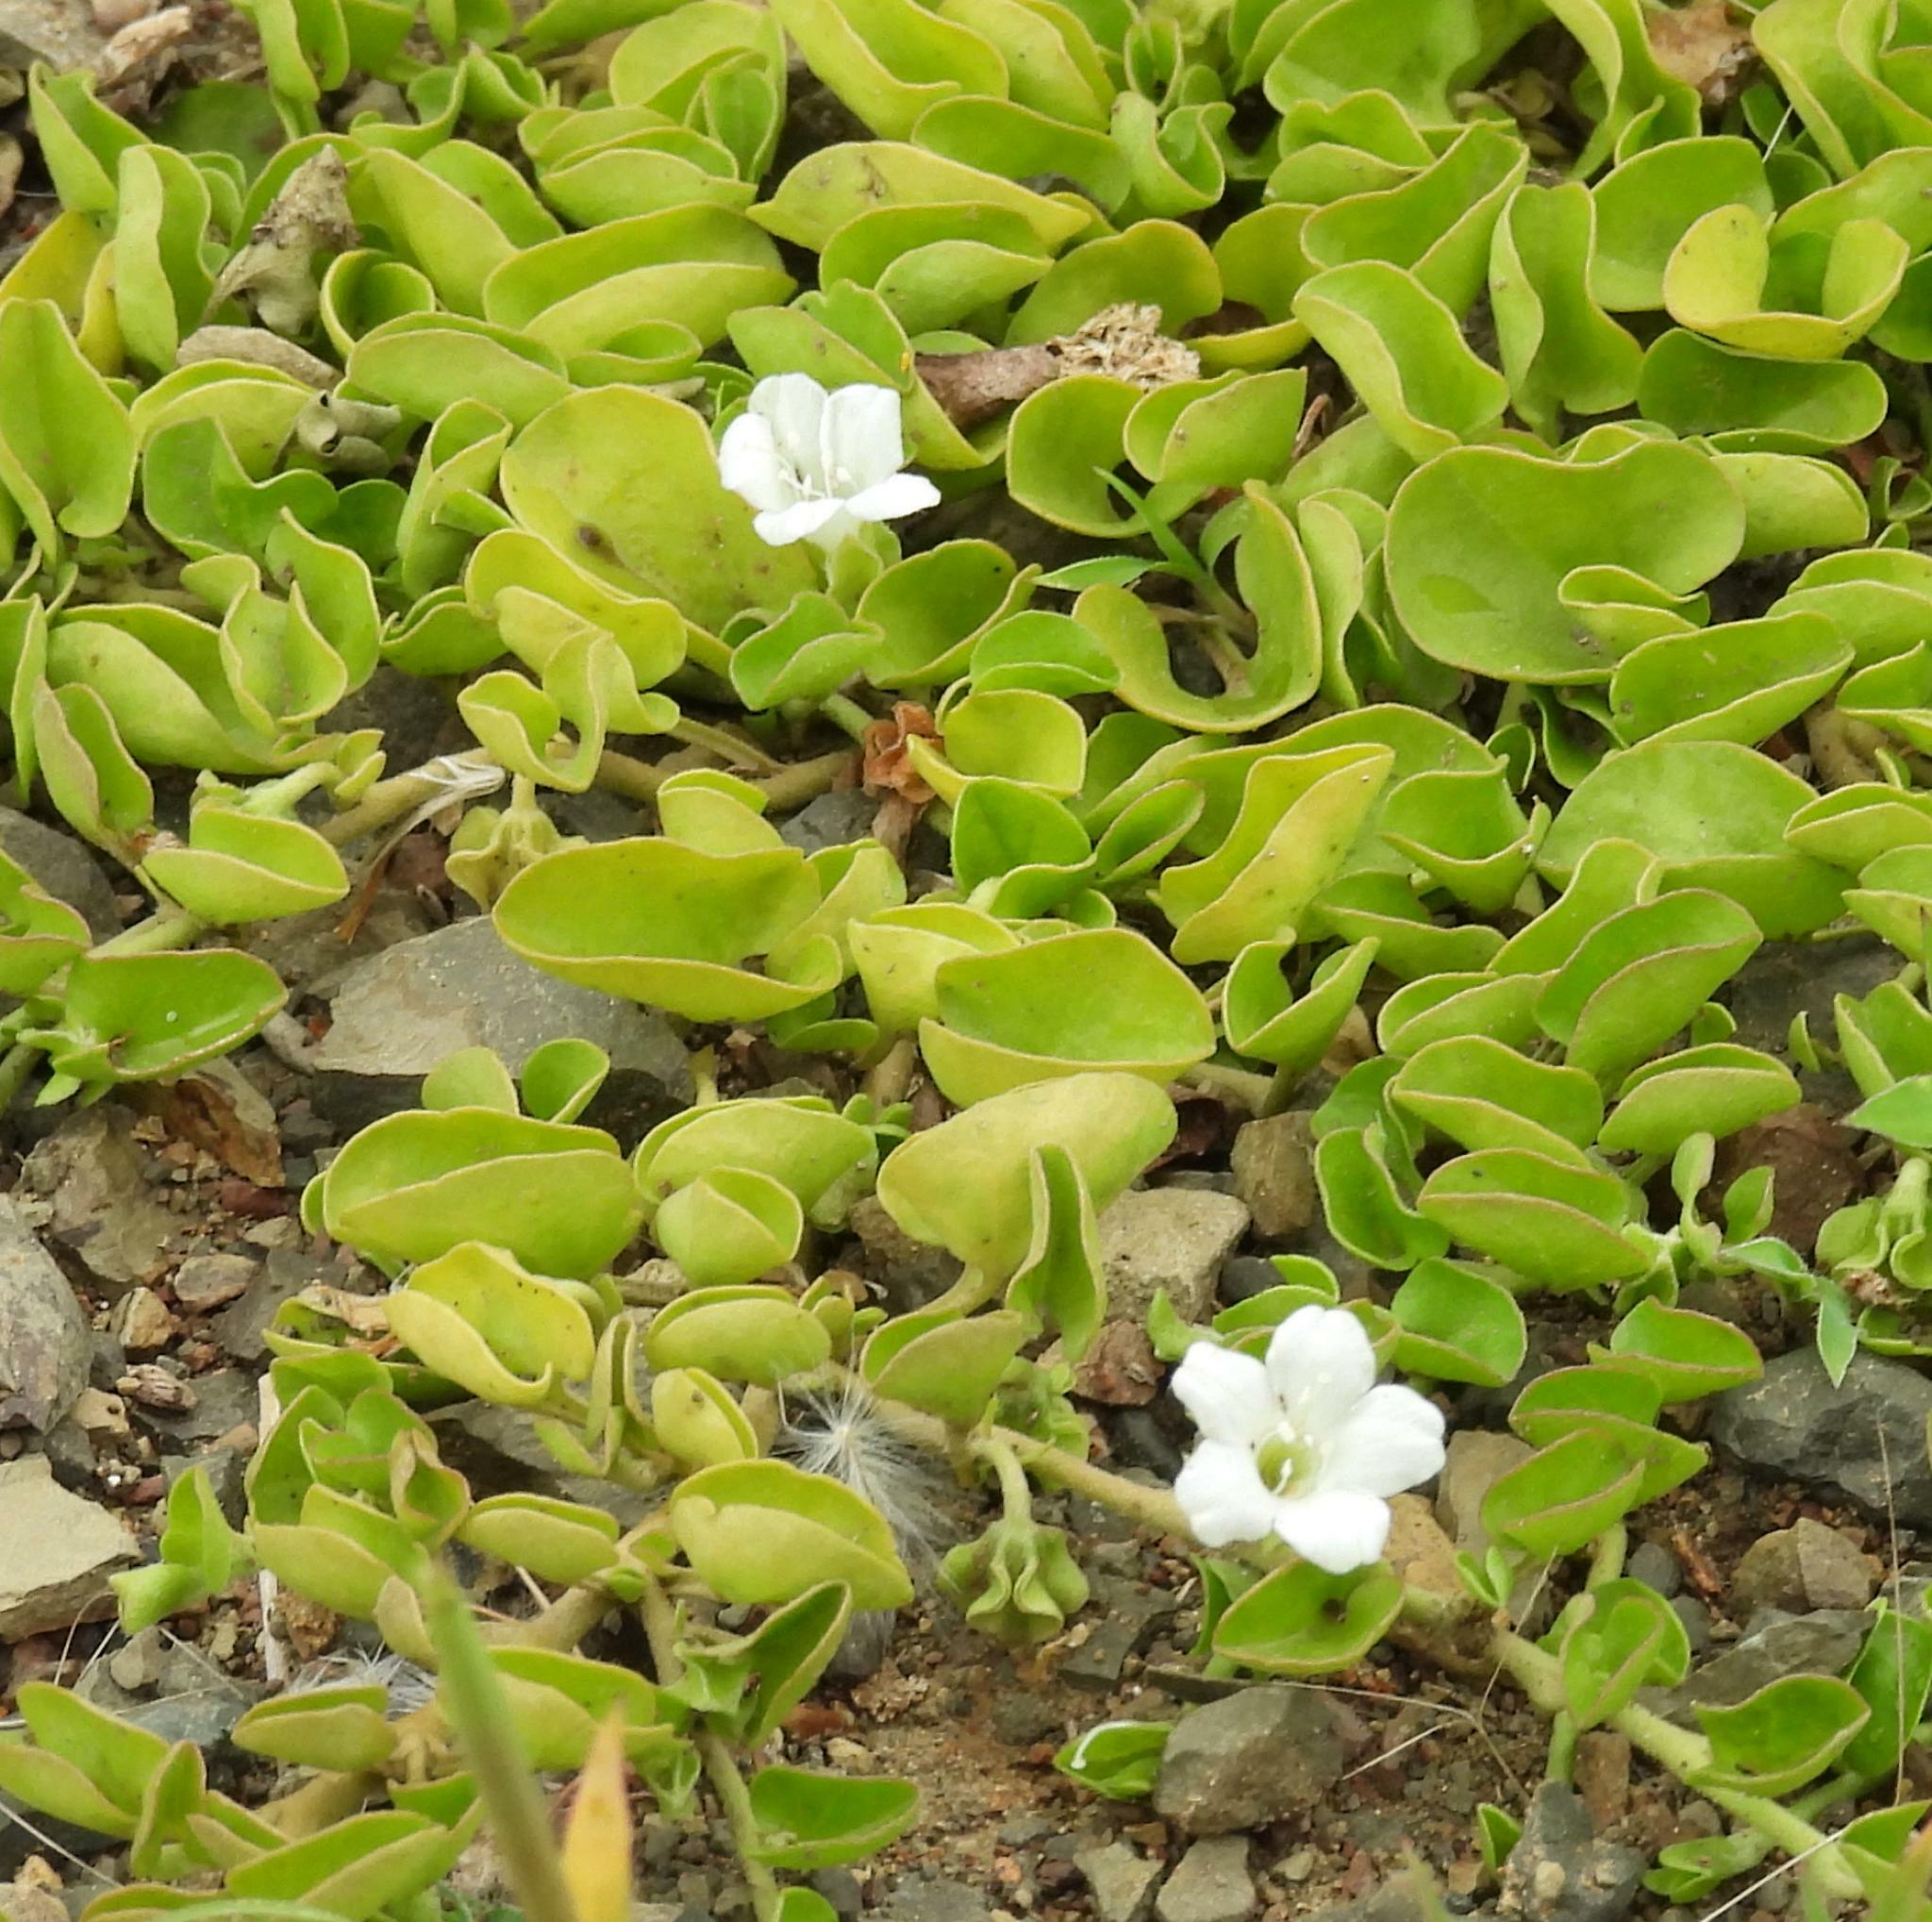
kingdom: Plantae
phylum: Tracheophyta
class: Magnoliopsida
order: Solanales
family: Convolvulaceae
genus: Falkia
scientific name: Falkia repens
